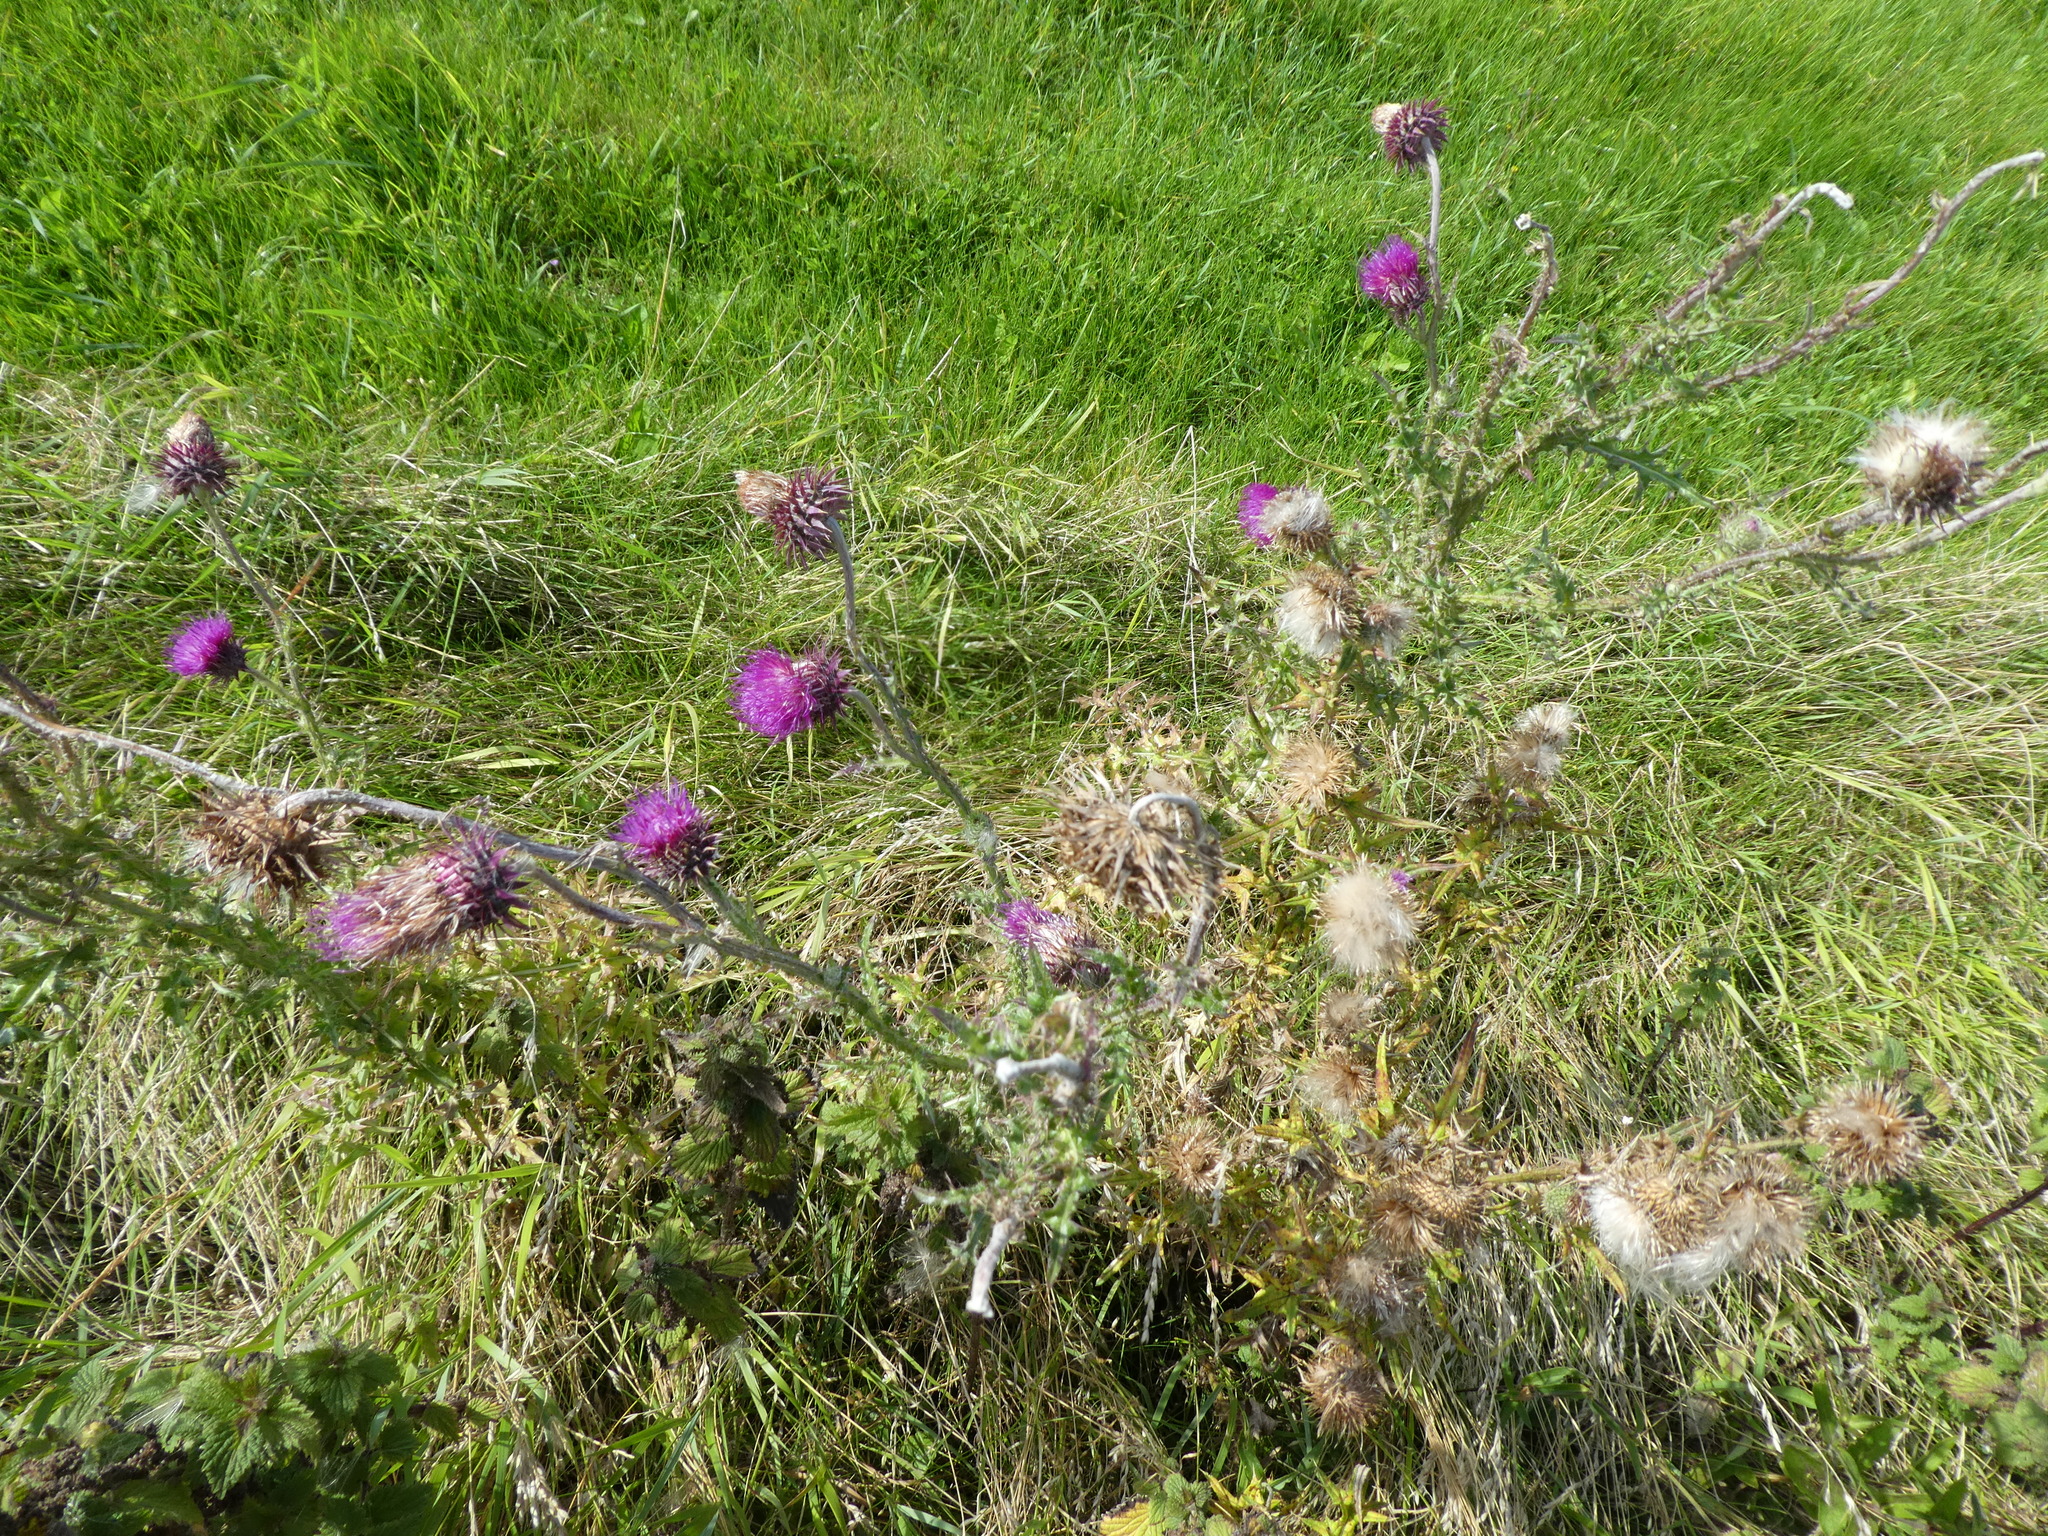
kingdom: Plantae
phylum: Tracheophyta
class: Magnoliopsida
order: Asterales
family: Asteraceae
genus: Carduus
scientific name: Carduus nutans
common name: Musk thistle
